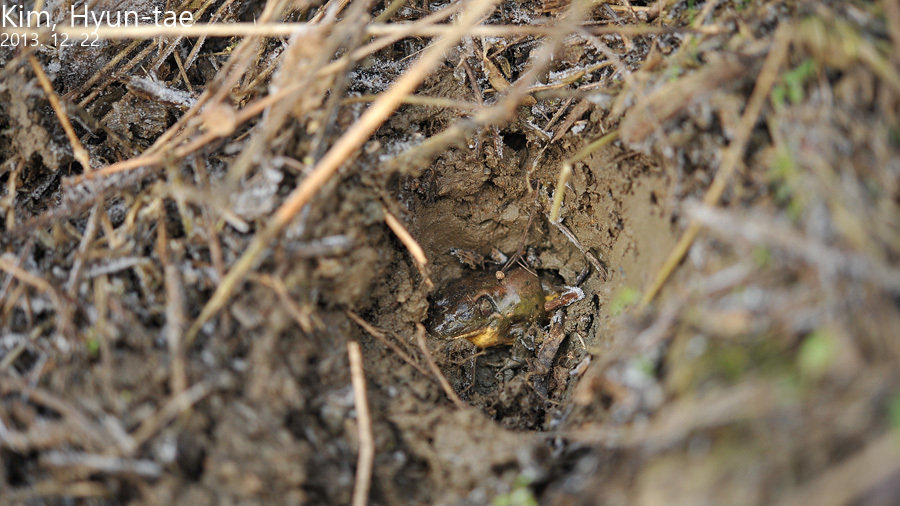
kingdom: Animalia
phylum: Chordata
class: Amphibia
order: Anura
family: Ranidae
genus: Pelophylax
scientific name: Pelophylax chosenicus
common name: Gold-spotted pond frog
